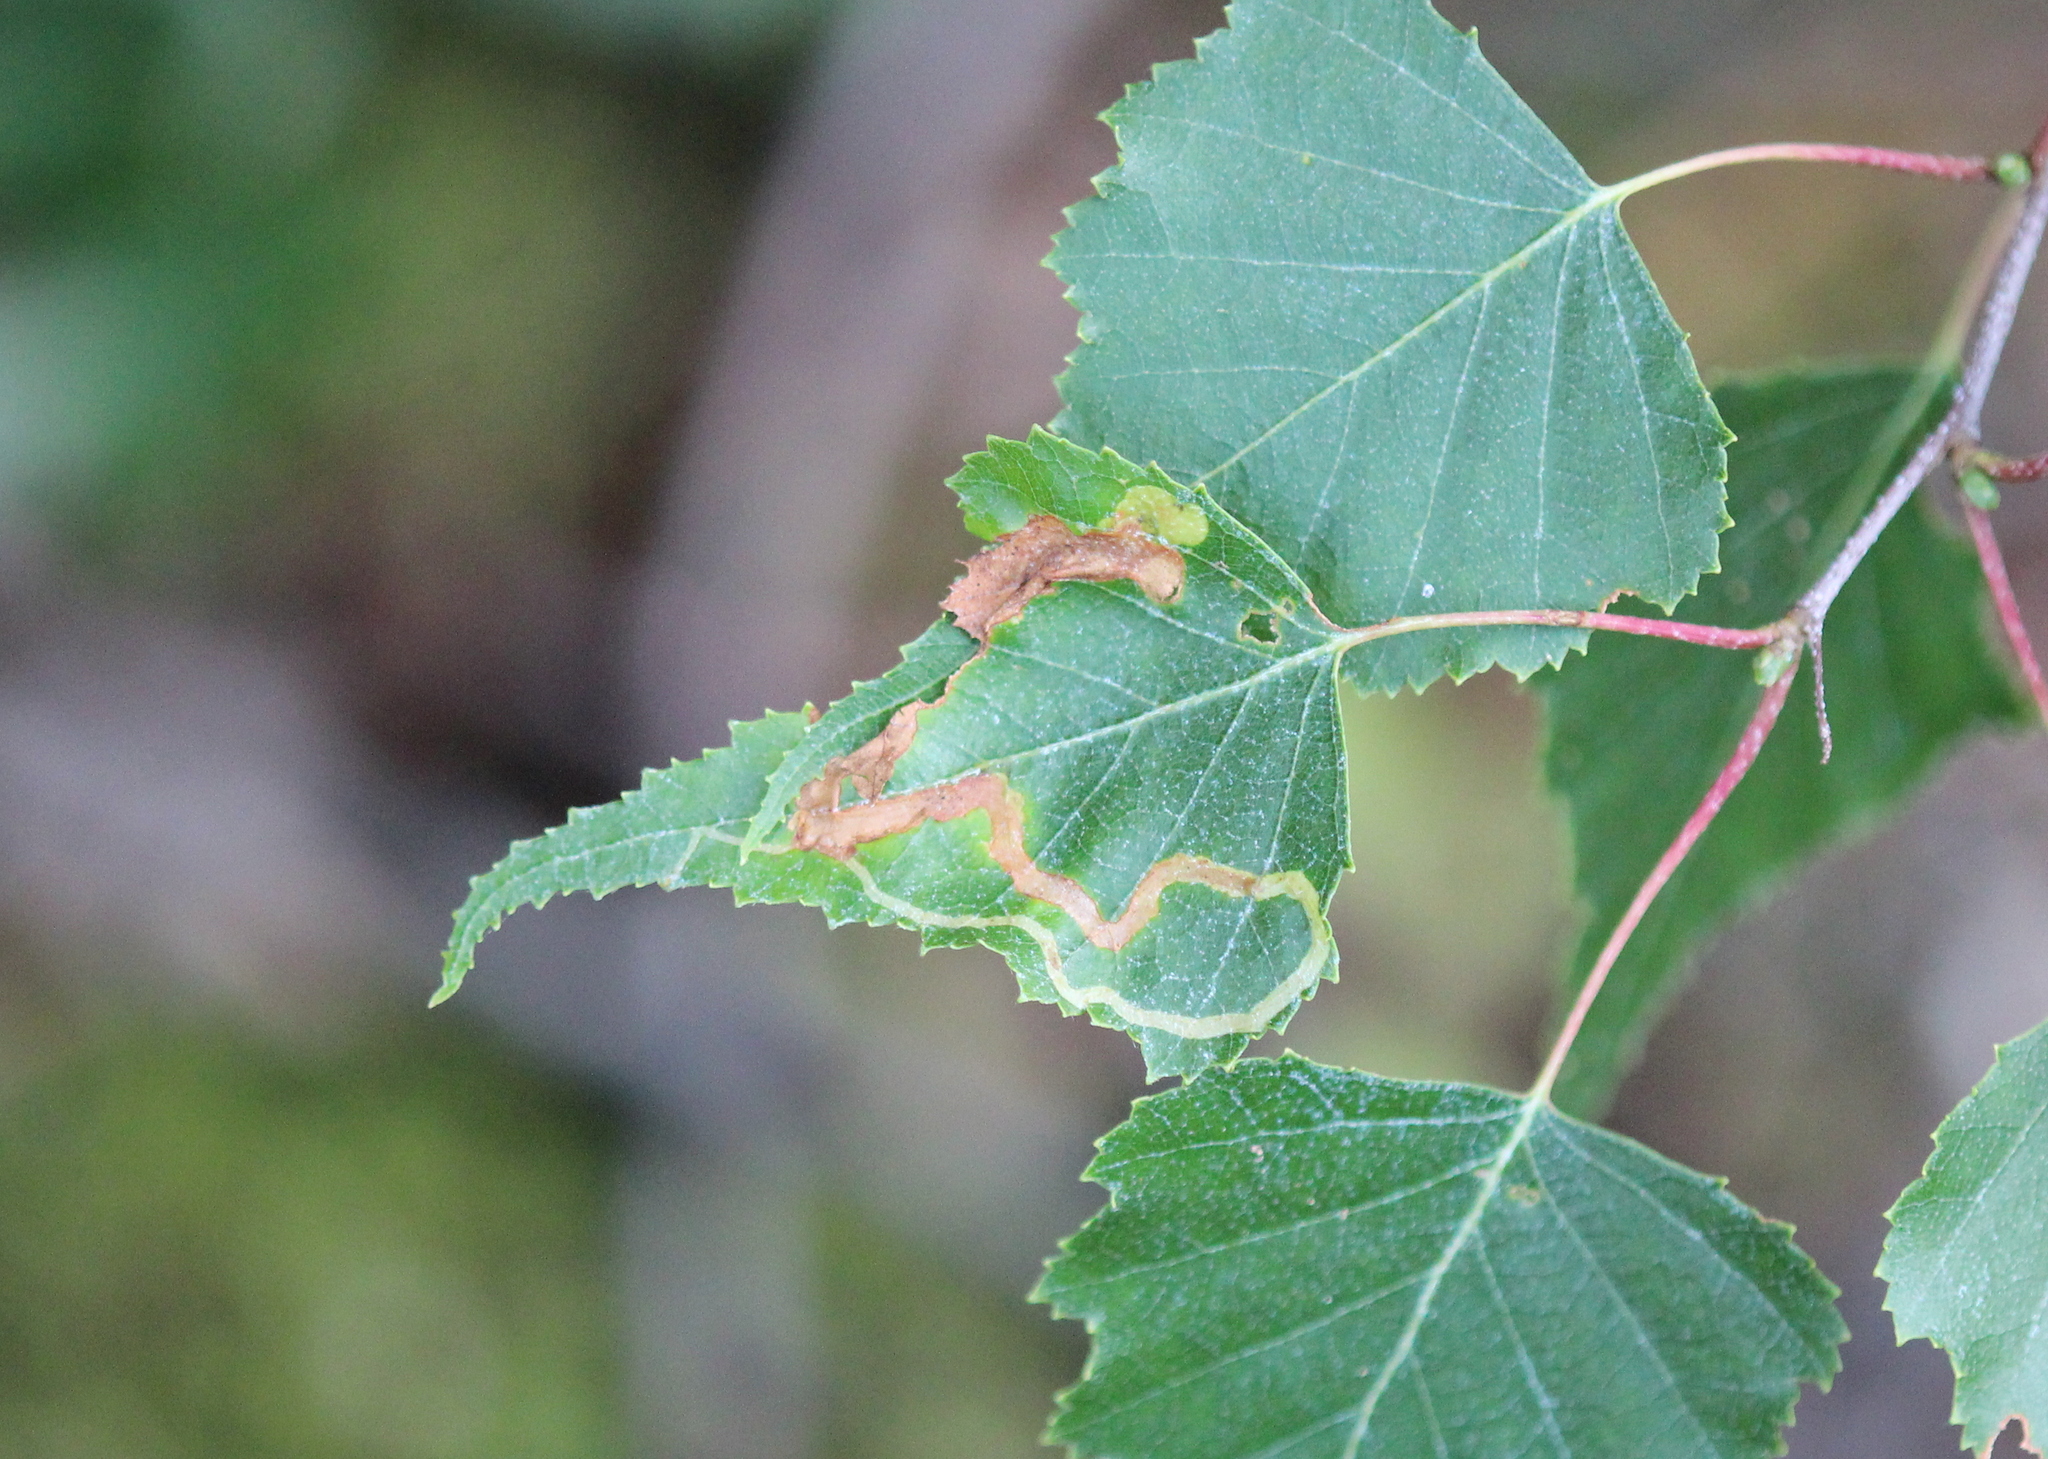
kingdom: Animalia
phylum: Arthropoda
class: Insecta
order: Diptera
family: Agromyzidae
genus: Agromyza
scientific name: Agromyza alnibetulae
